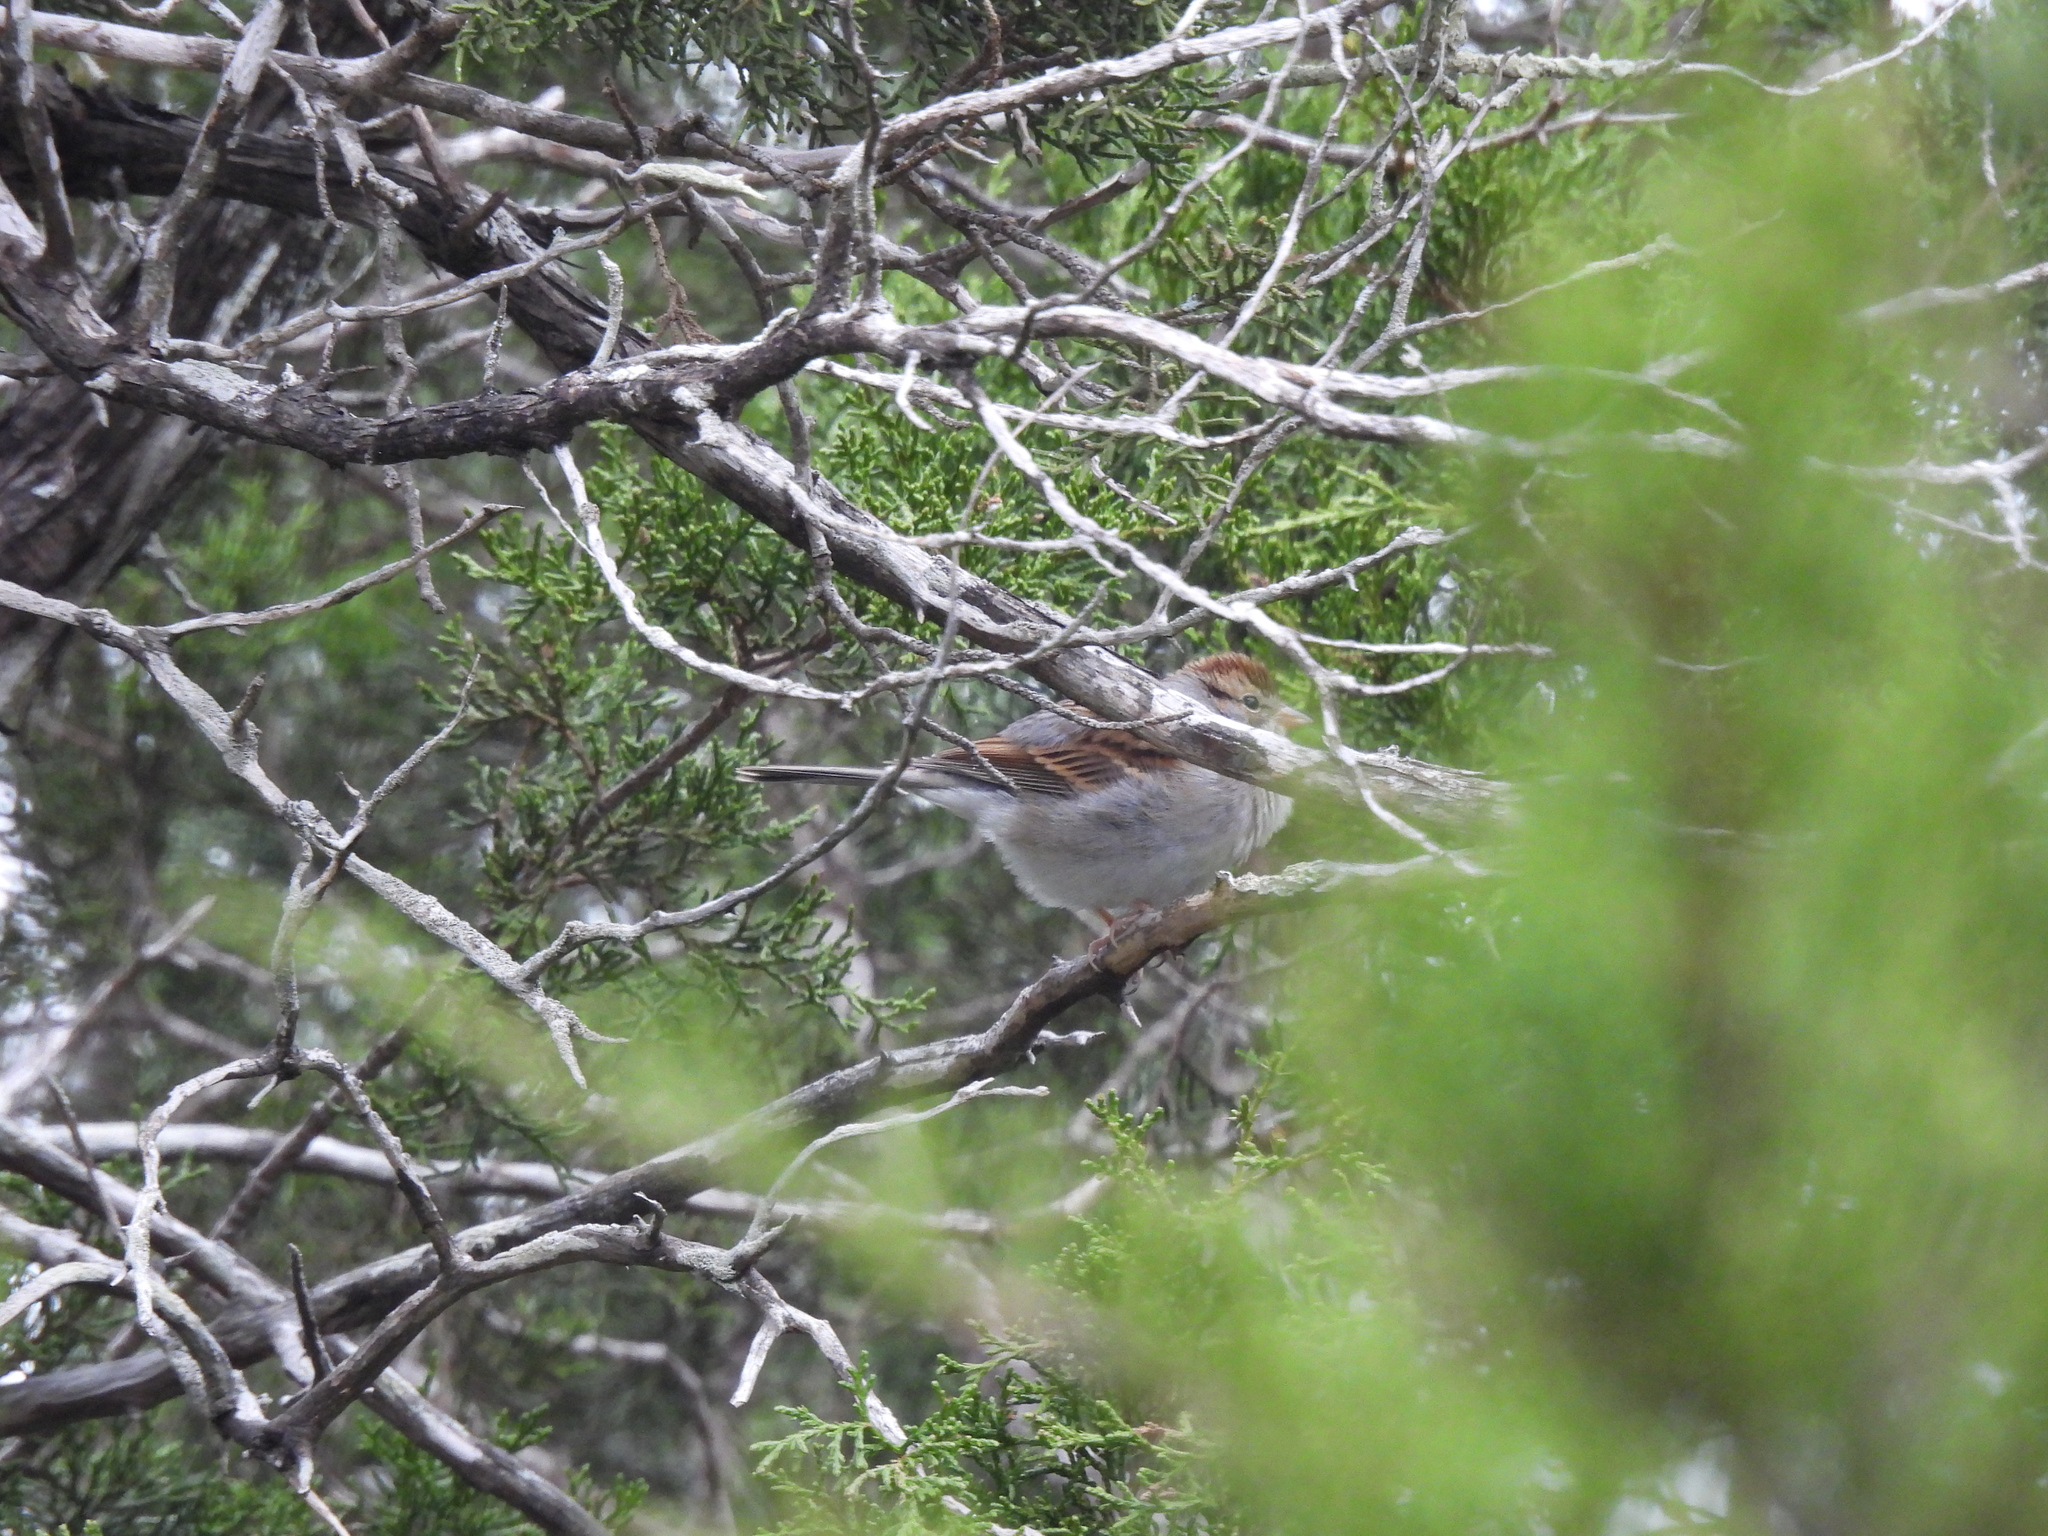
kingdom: Animalia
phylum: Chordata
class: Aves
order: Passeriformes
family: Passerellidae
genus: Spizella
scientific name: Spizella passerina
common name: Chipping sparrow
